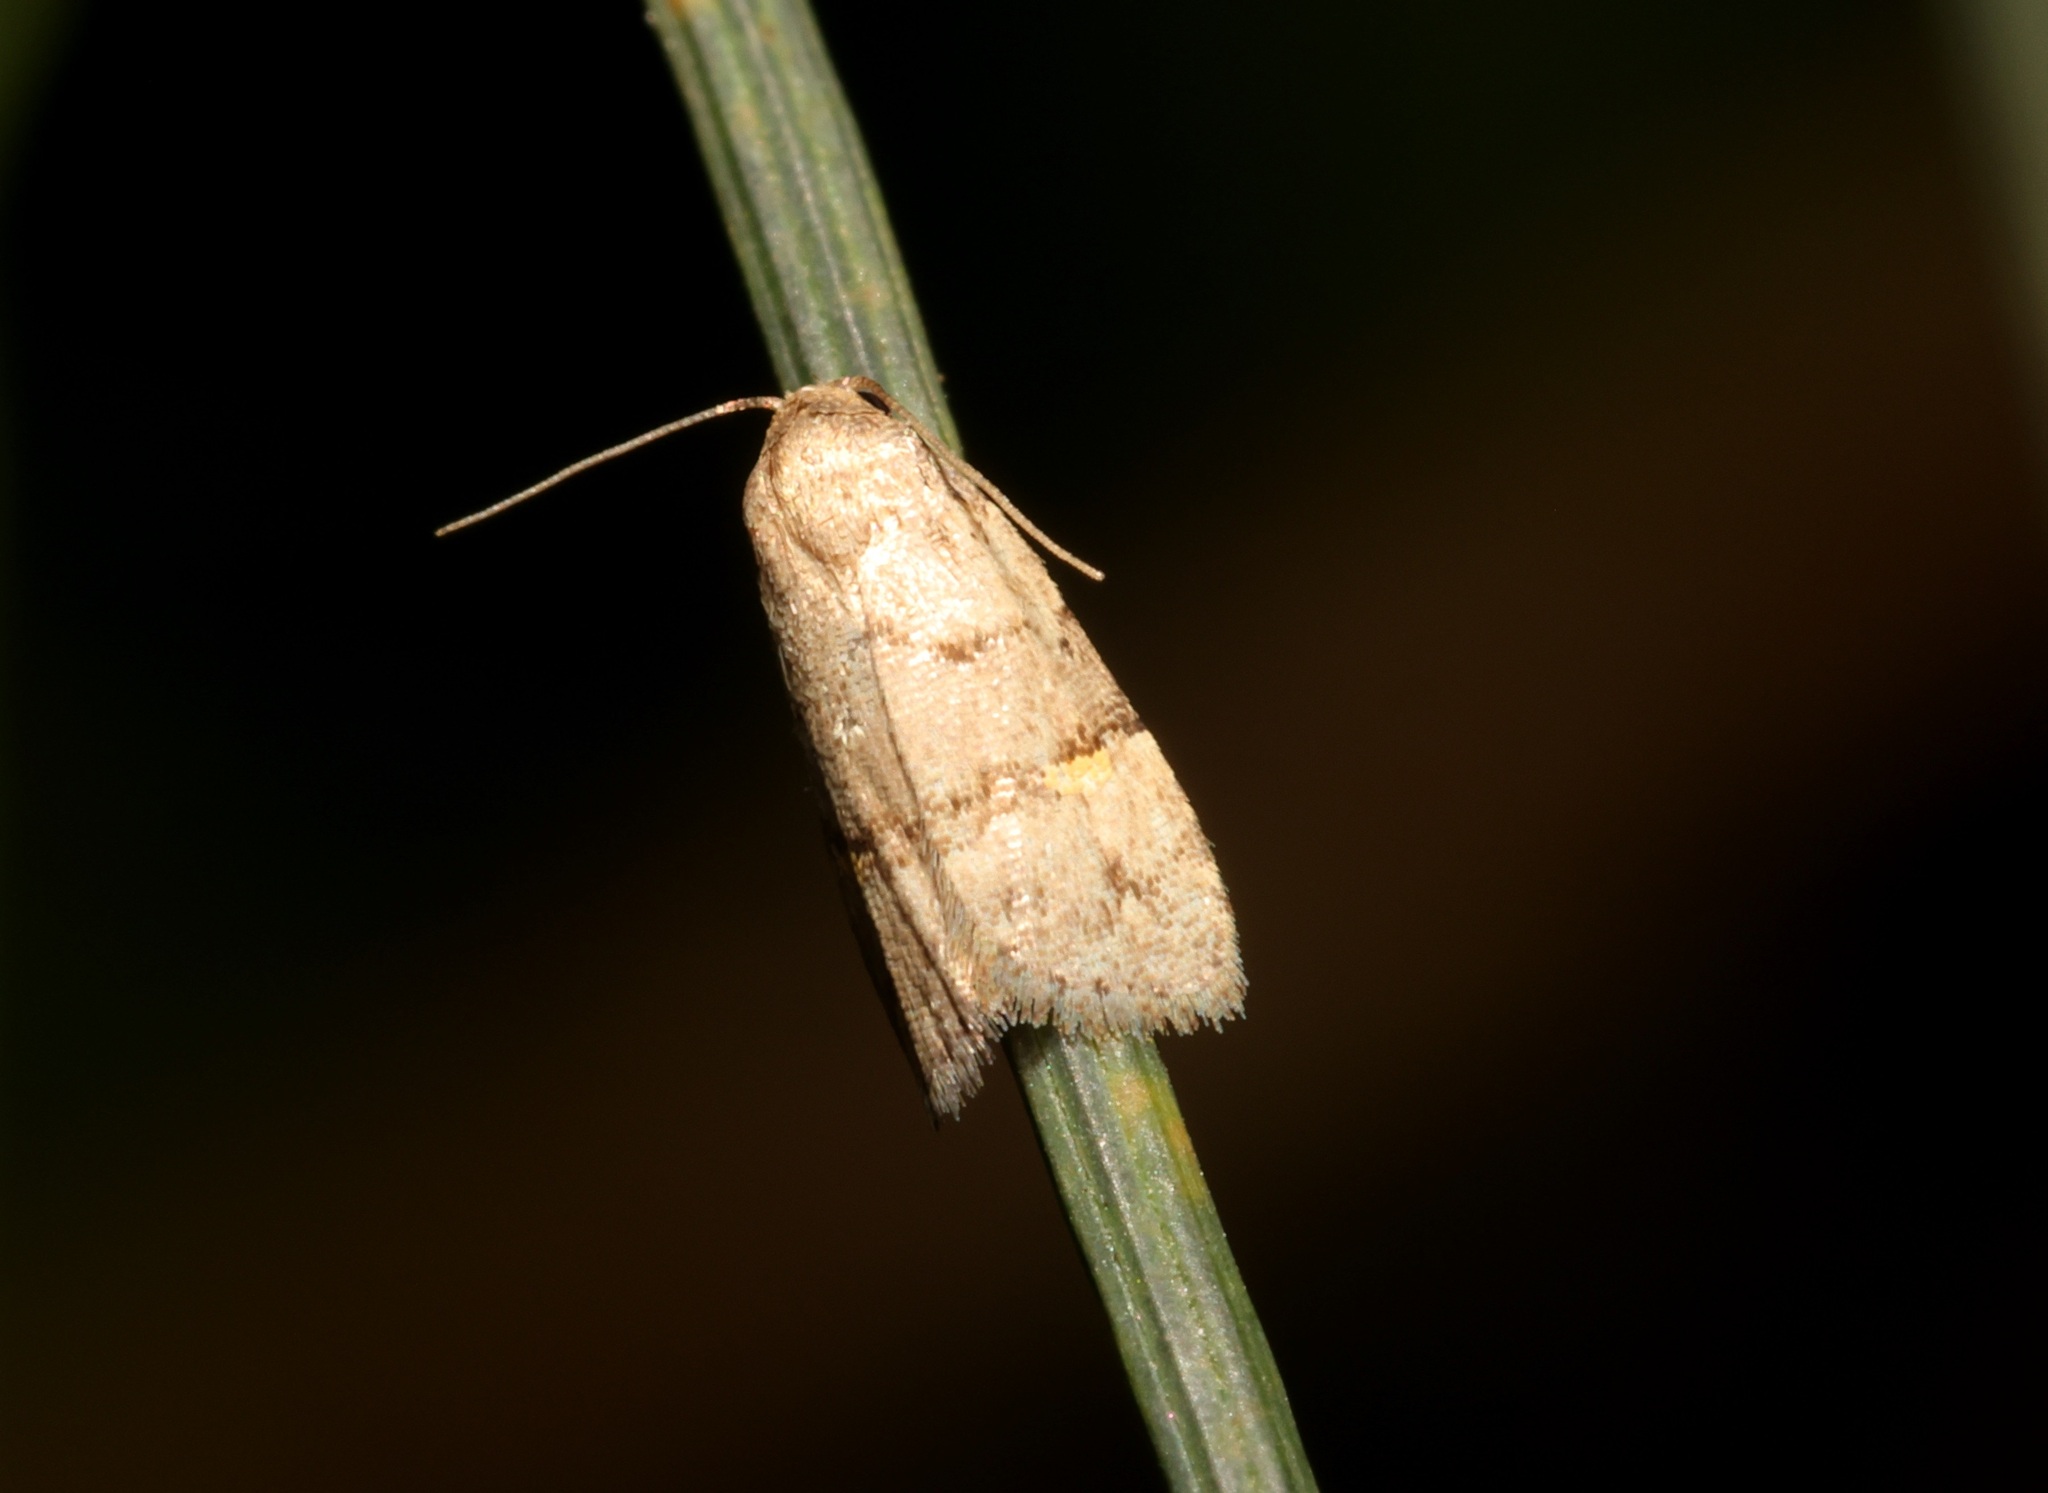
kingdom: Animalia
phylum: Arthropoda
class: Insecta
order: Lepidoptera
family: Erebidae
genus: Fustius
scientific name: Fustius sterlingi
